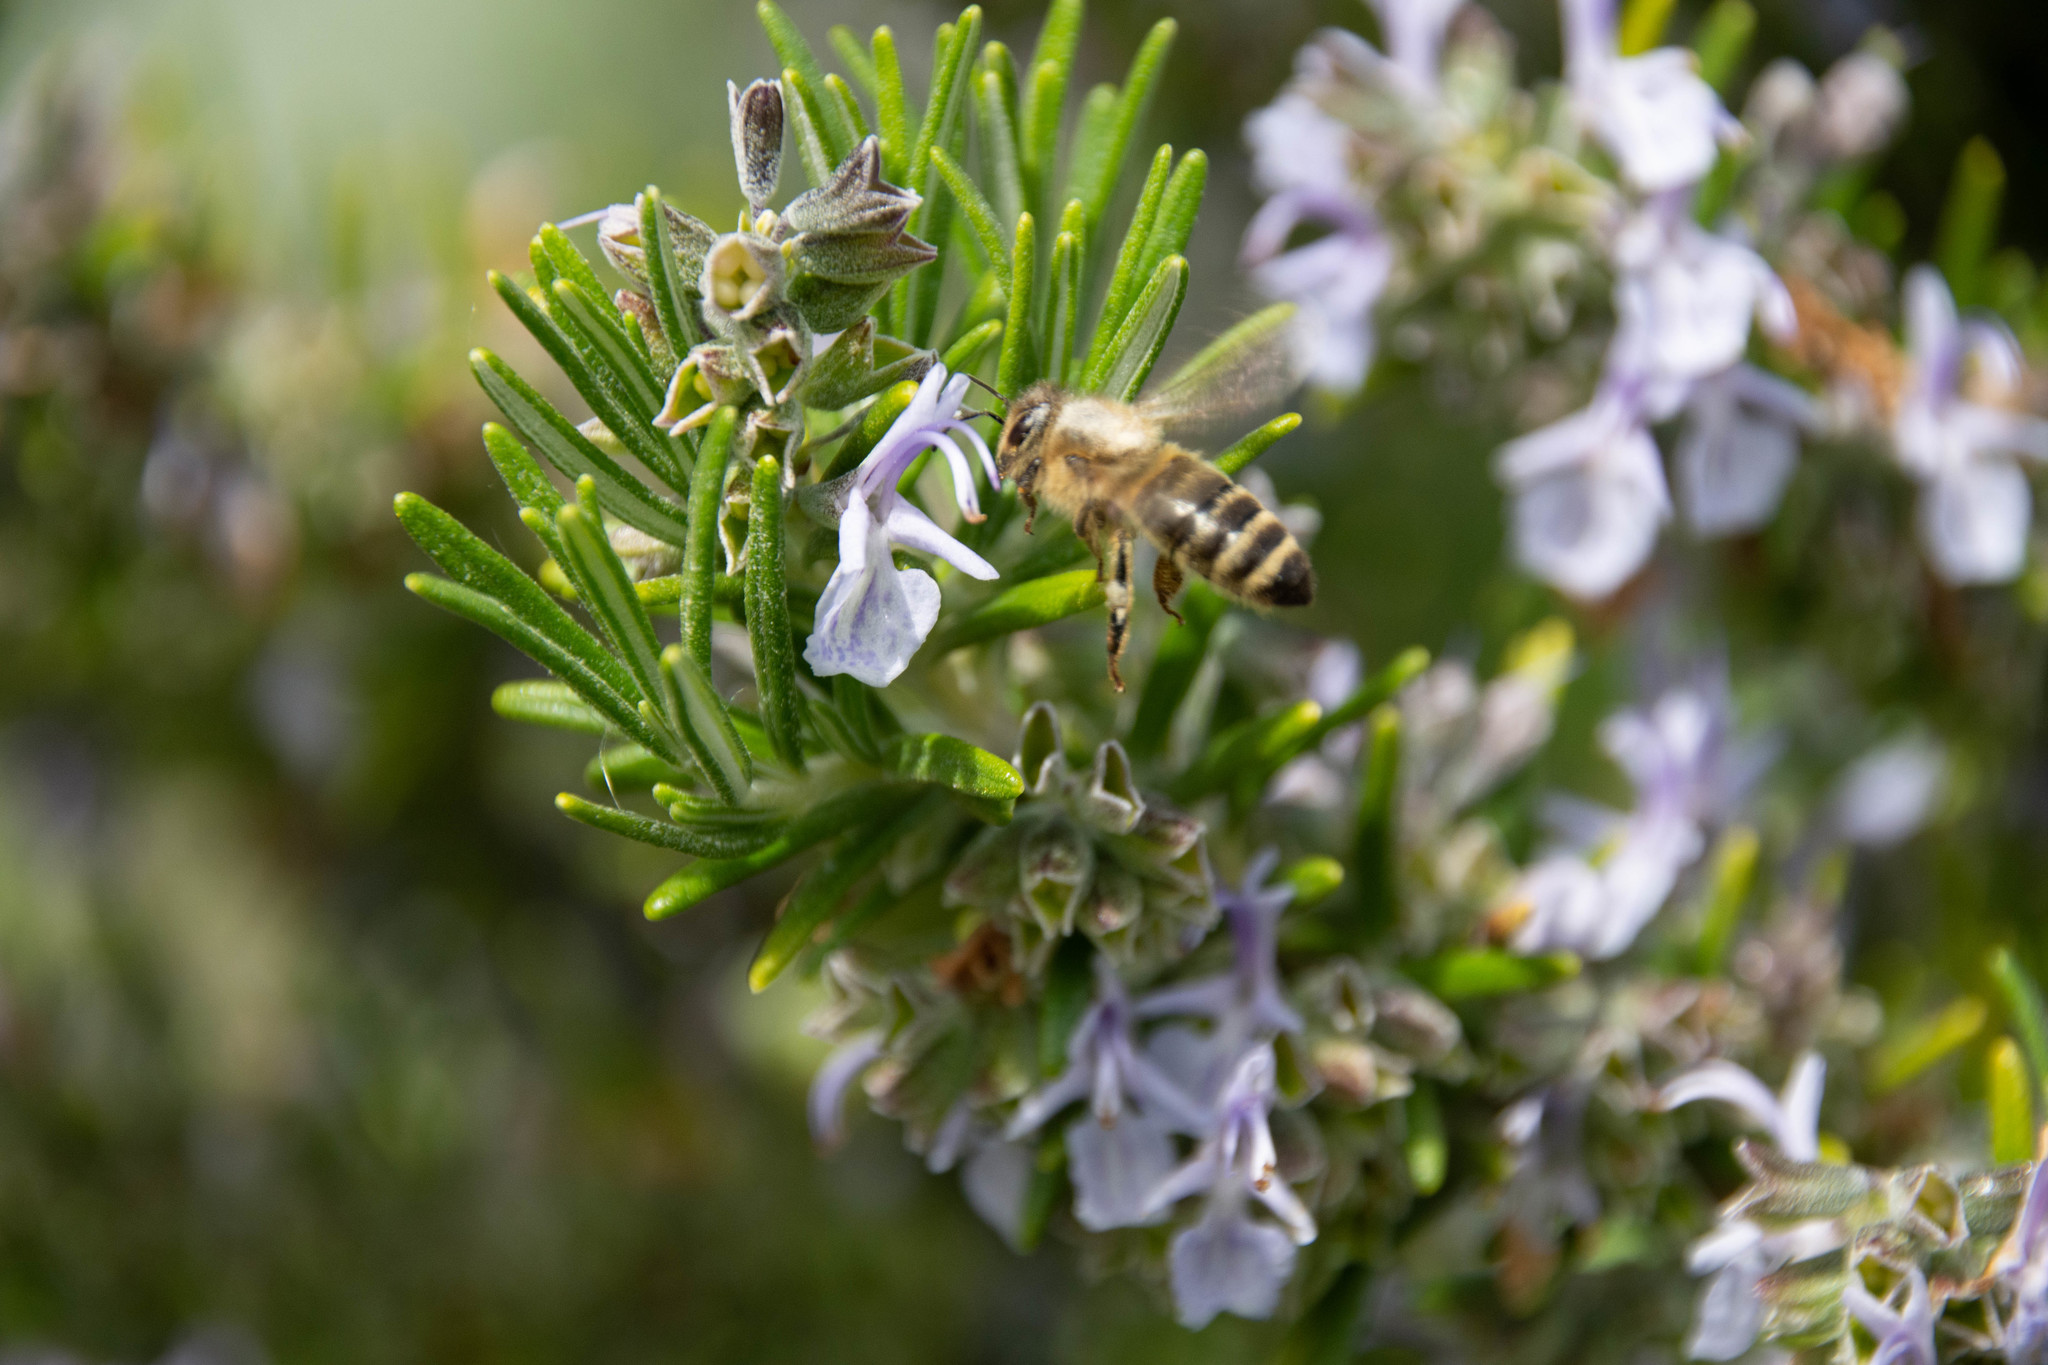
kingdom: Animalia
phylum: Arthropoda
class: Insecta
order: Hymenoptera
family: Apidae
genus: Apis
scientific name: Apis mellifera
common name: Honey bee
